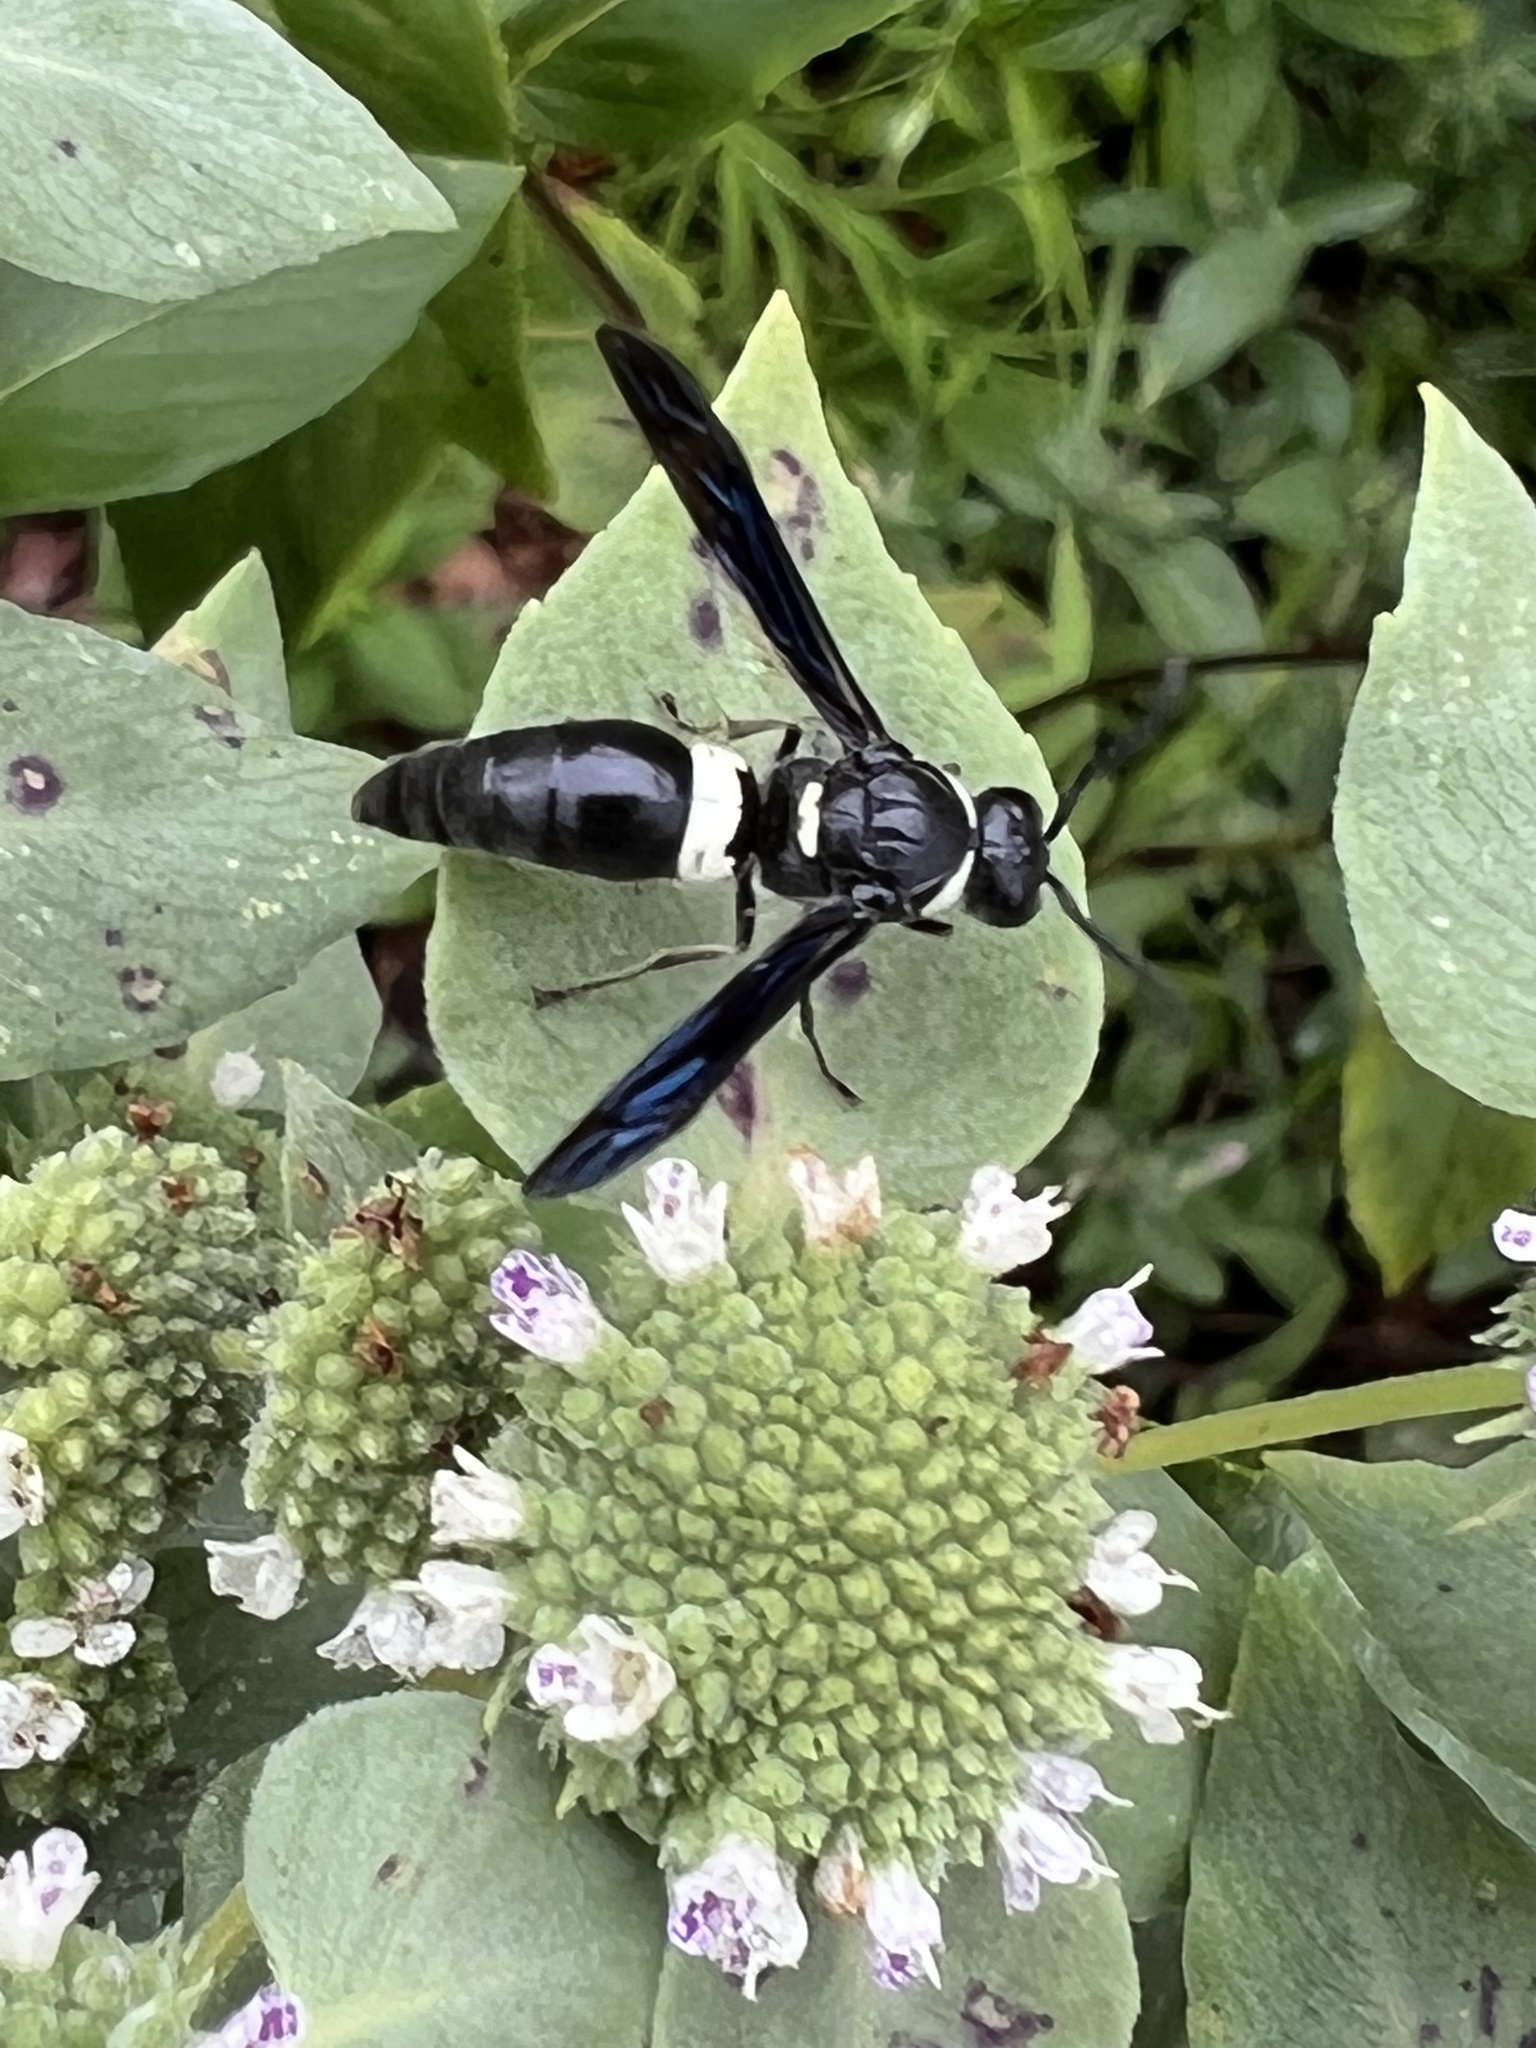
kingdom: Animalia
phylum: Arthropoda
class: Insecta
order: Hymenoptera
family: Eumenidae
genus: Monobia
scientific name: Monobia quadridens
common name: Four-toothed mason wasp
